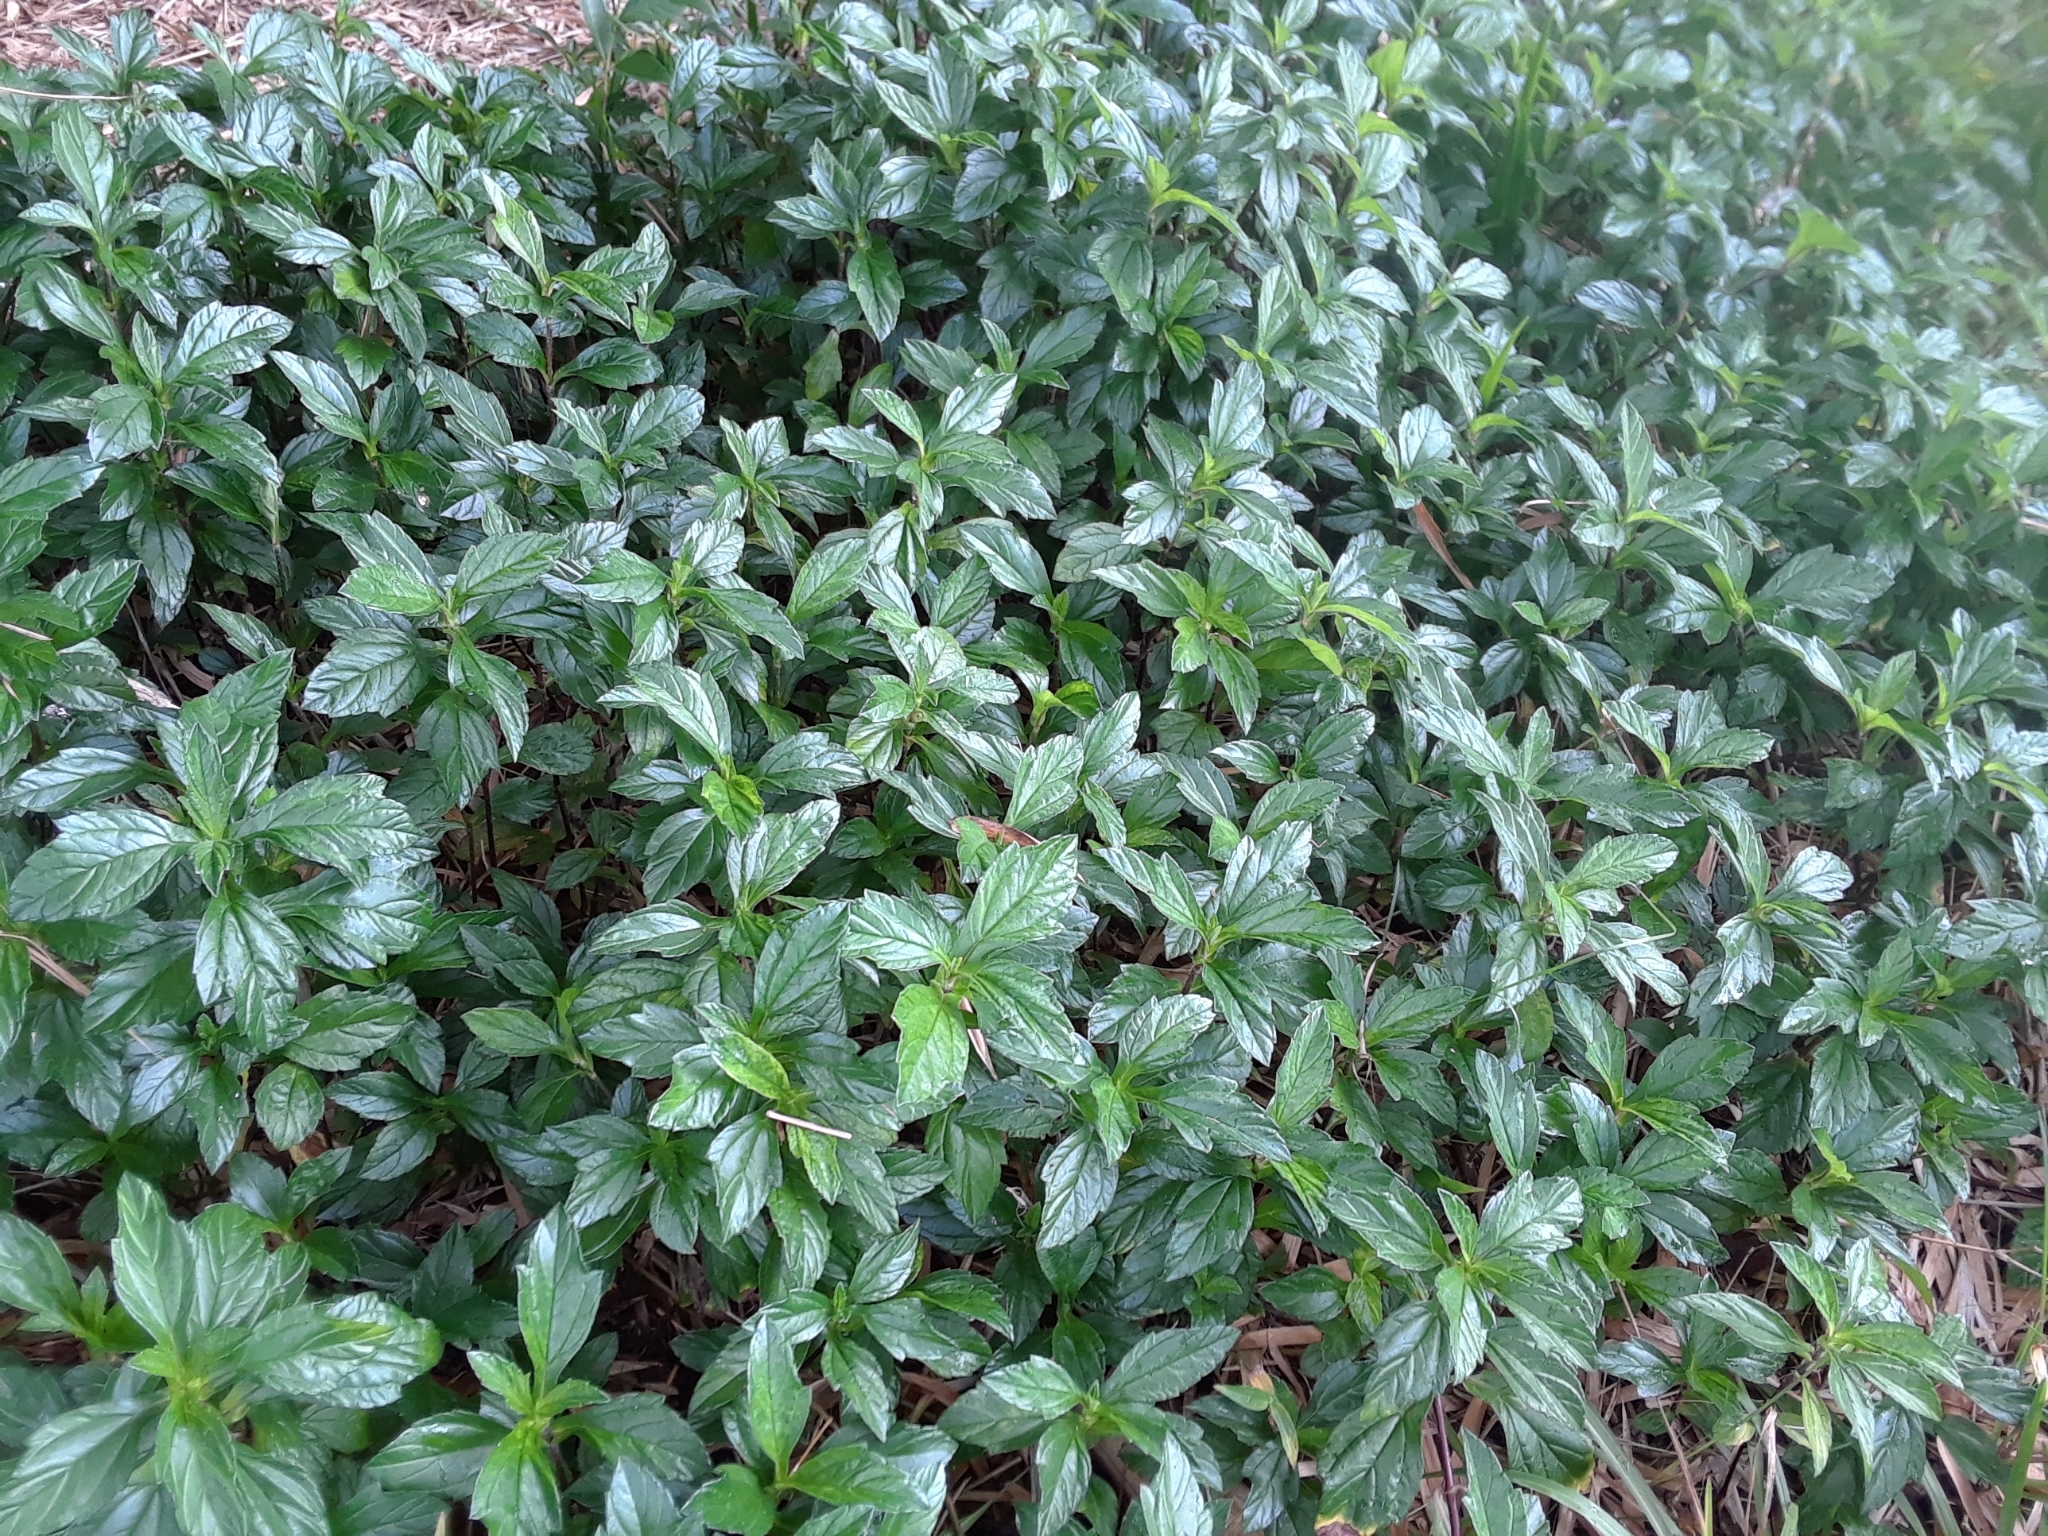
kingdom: Plantae
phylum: Tracheophyta
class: Magnoliopsida
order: Asterales
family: Asteraceae
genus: Sphagneticola
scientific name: Sphagneticola trilobata
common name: Bay biscayne creeping-oxeye
